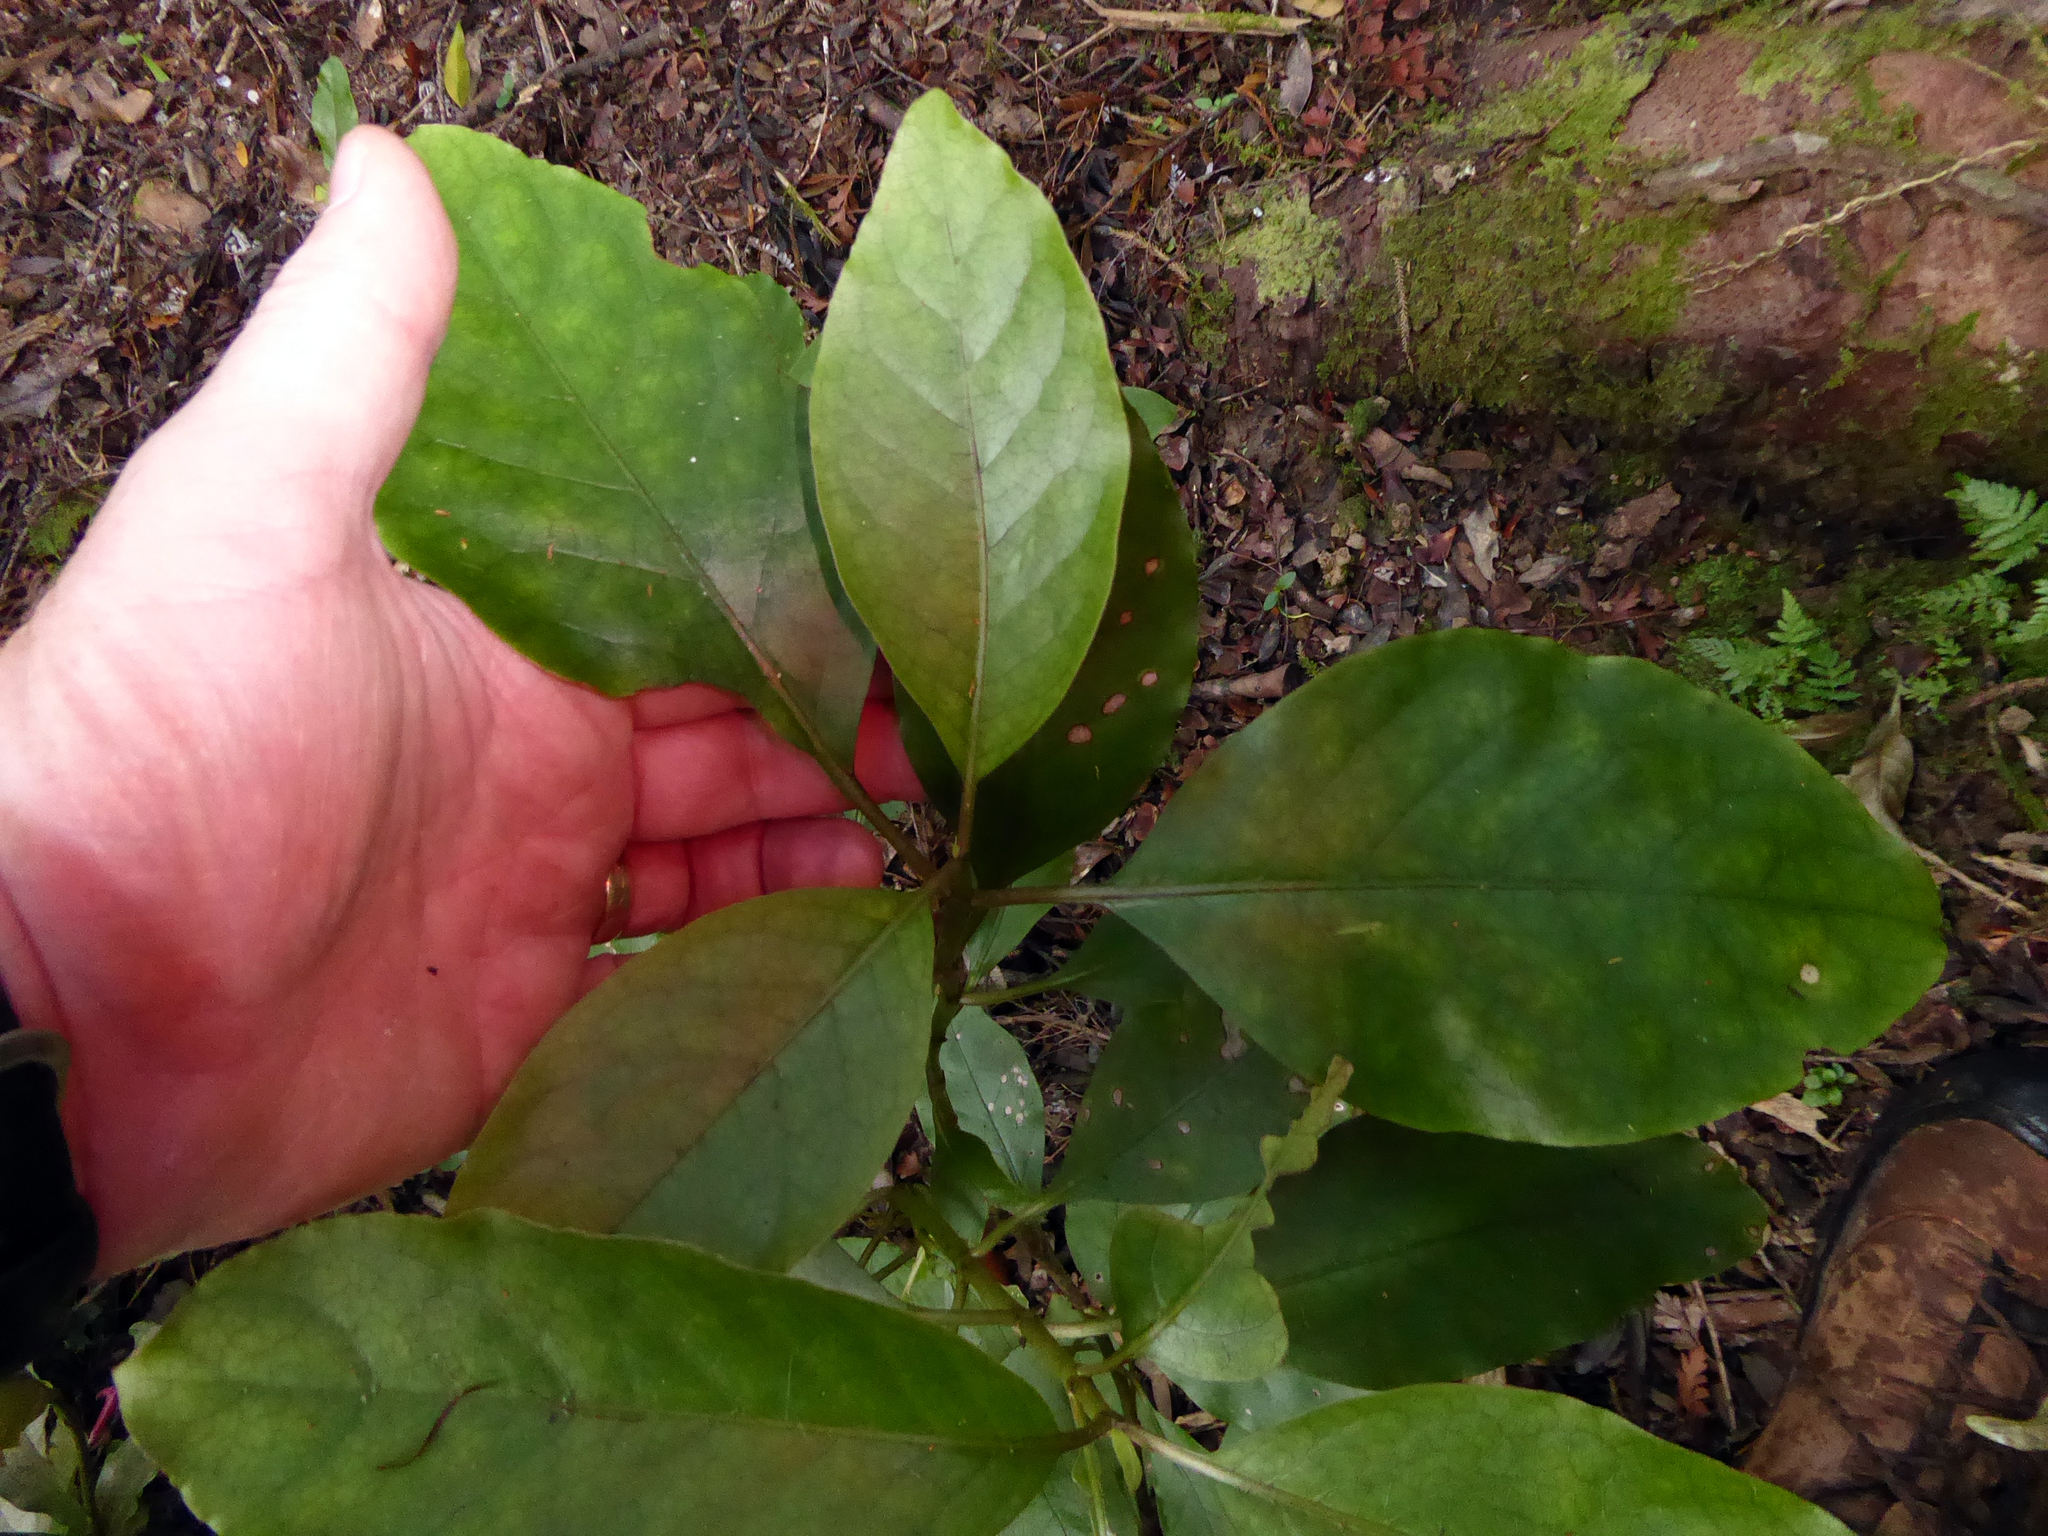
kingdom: Plantae
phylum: Tracheophyta
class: Magnoliopsida
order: Gentianales
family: Rubiaceae
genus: Coprosma
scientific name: Coprosma autumnalis
